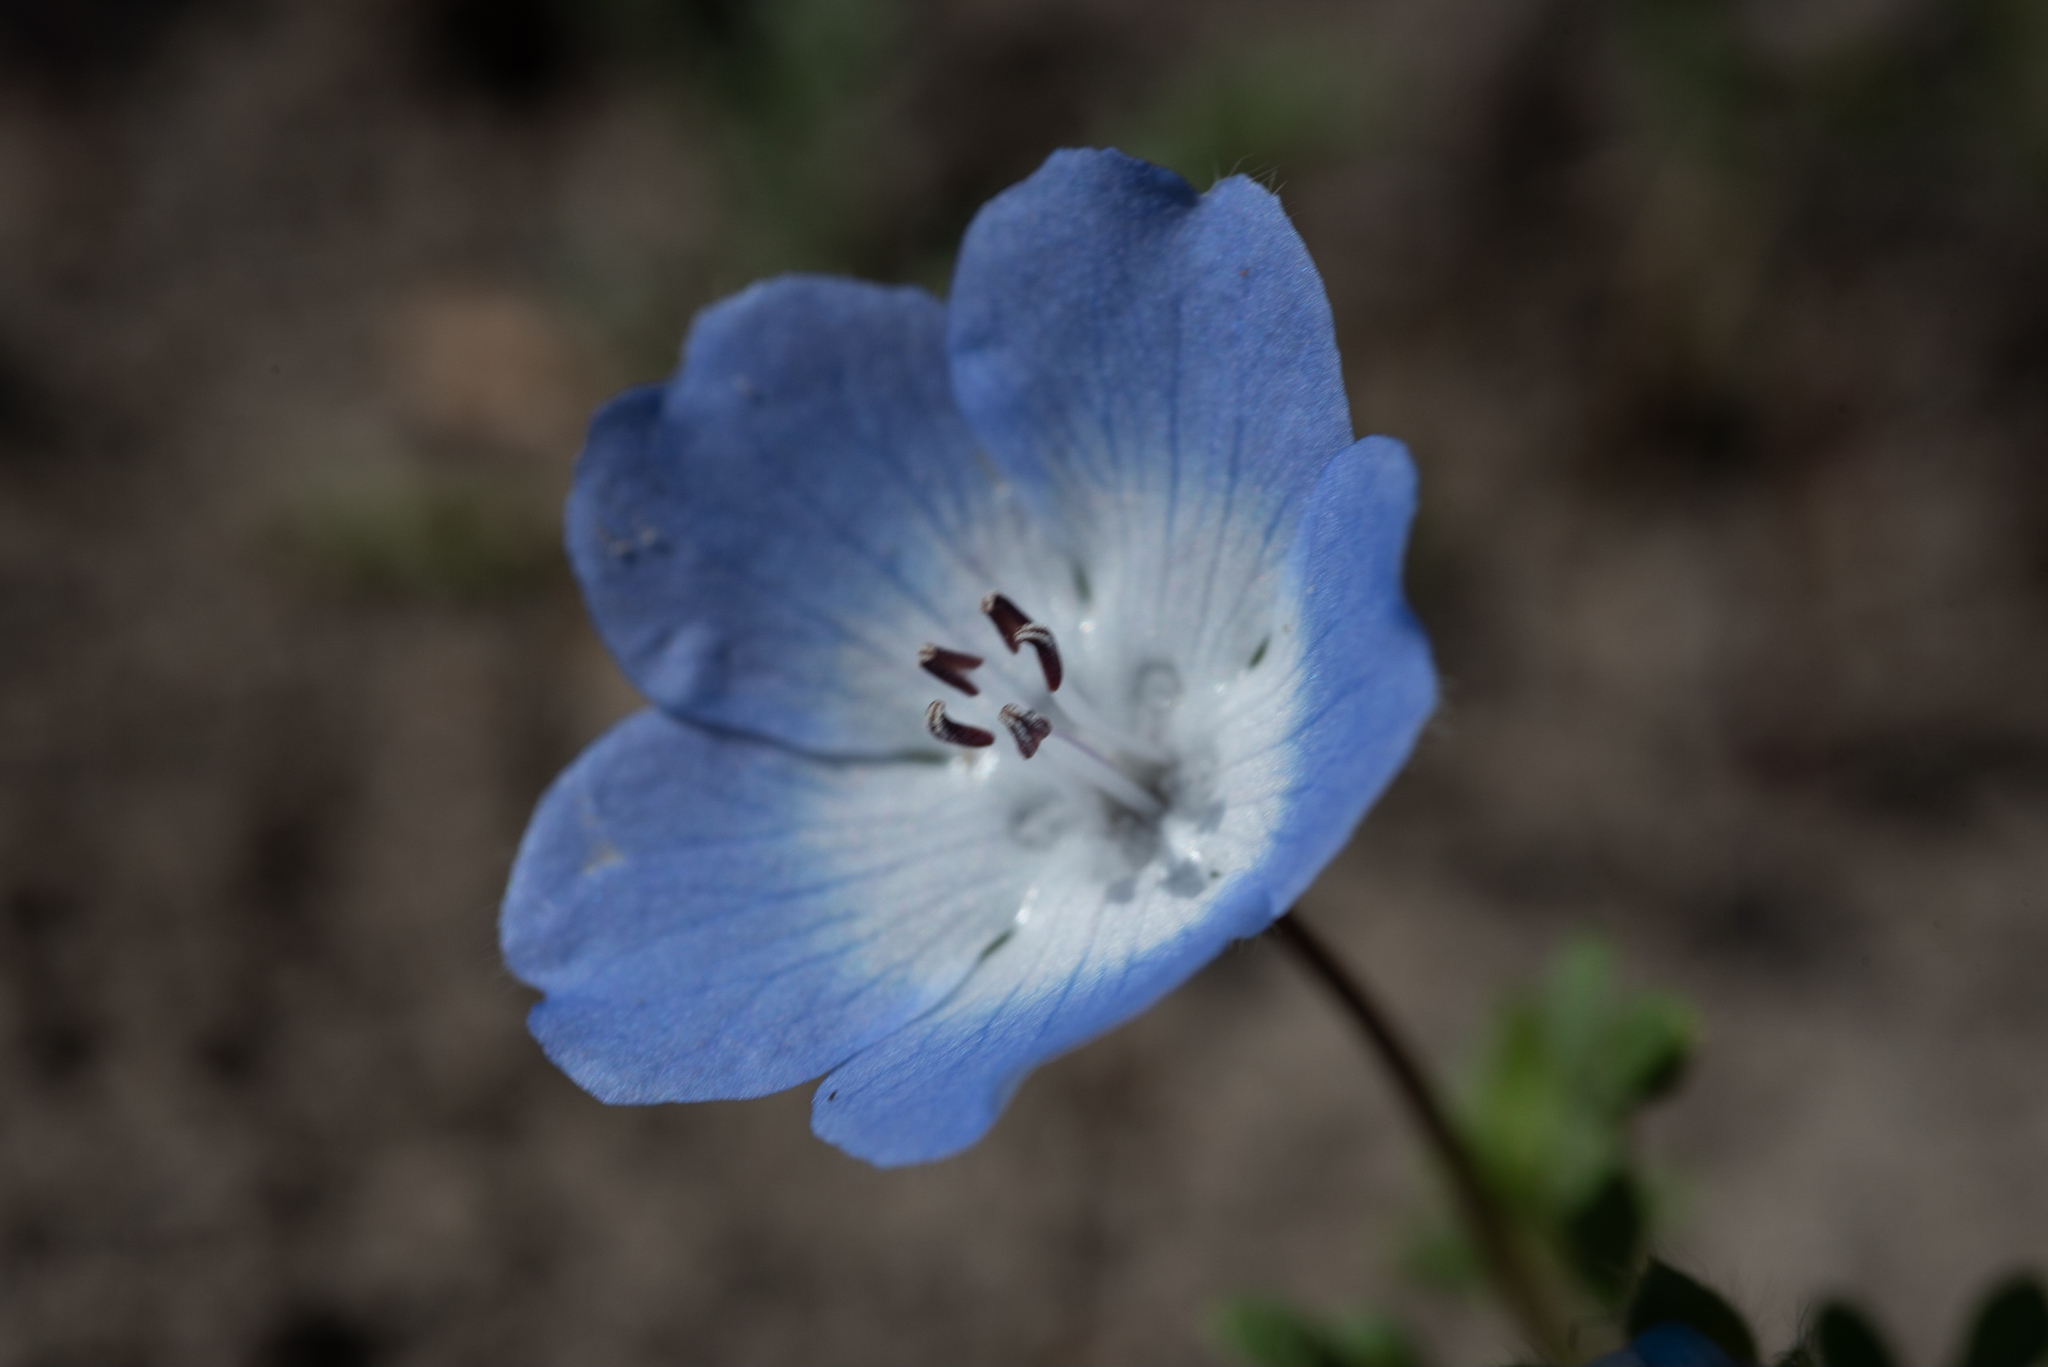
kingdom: Plantae
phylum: Tracheophyta
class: Magnoliopsida
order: Boraginales
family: Hydrophyllaceae
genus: Nemophila
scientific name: Nemophila menziesii
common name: Baby's-blue-eyes
